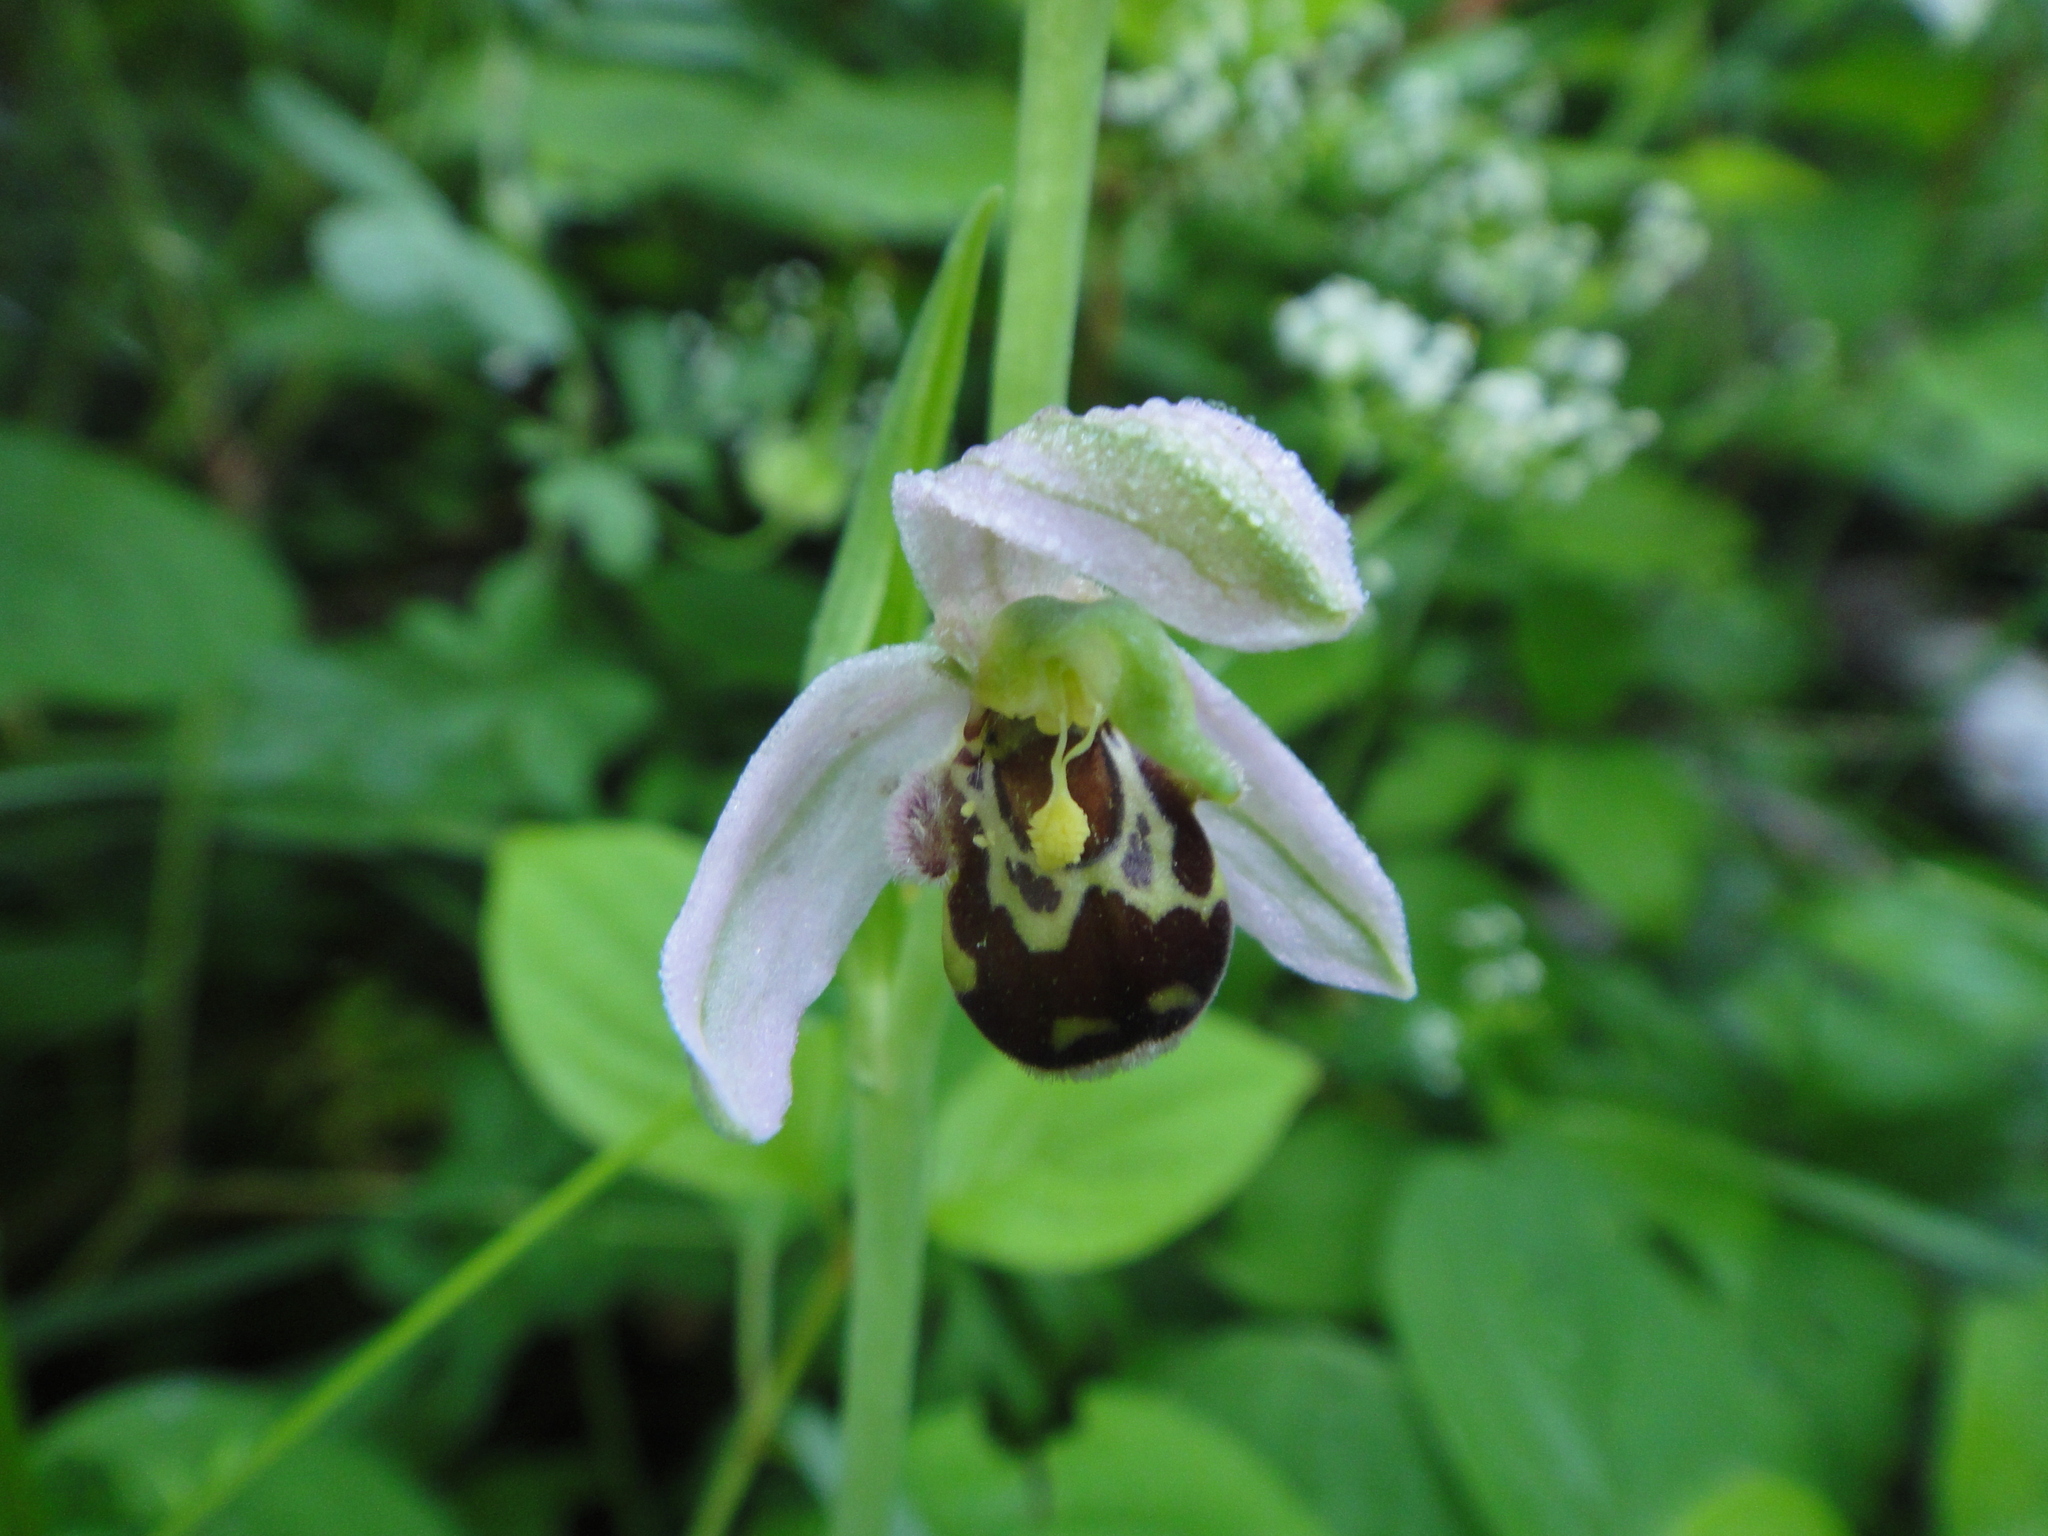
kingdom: Plantae
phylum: Tracheophyta
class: Liliopsida
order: Asparagales
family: Orchidaceae
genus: Ophrys
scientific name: Ophrys apifera
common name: Bee orchid
